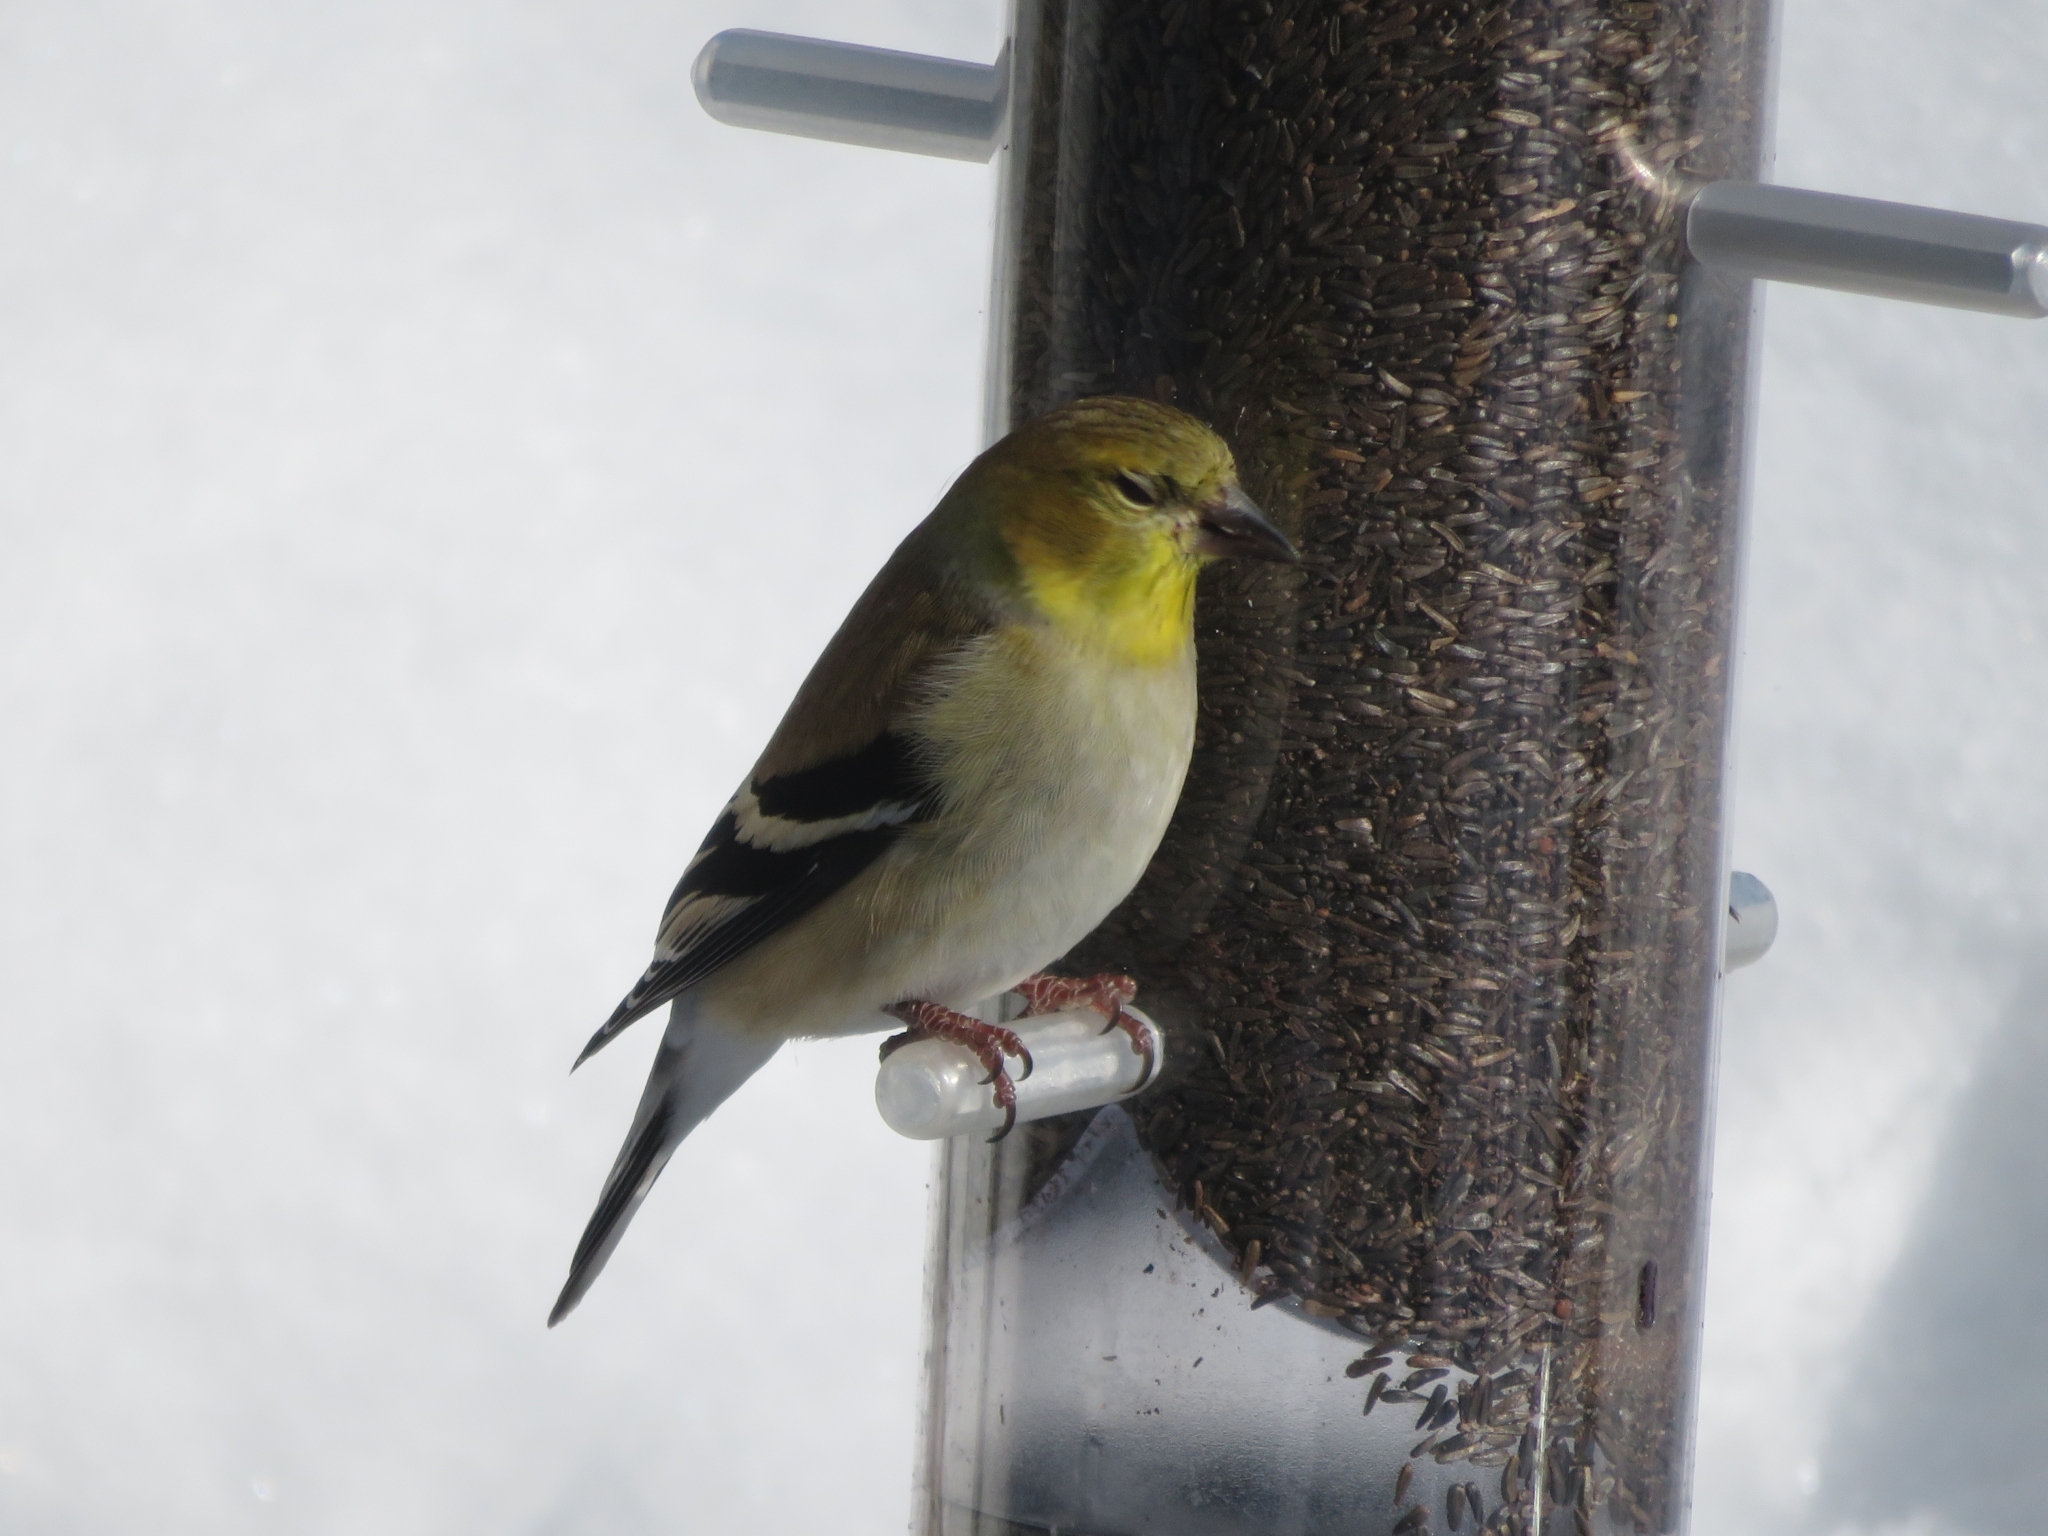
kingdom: Animalia
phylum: Chordata
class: Aves
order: Passeriformes
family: Fringillidae
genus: Spinus
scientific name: Spinus tristis
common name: American goldfinch
